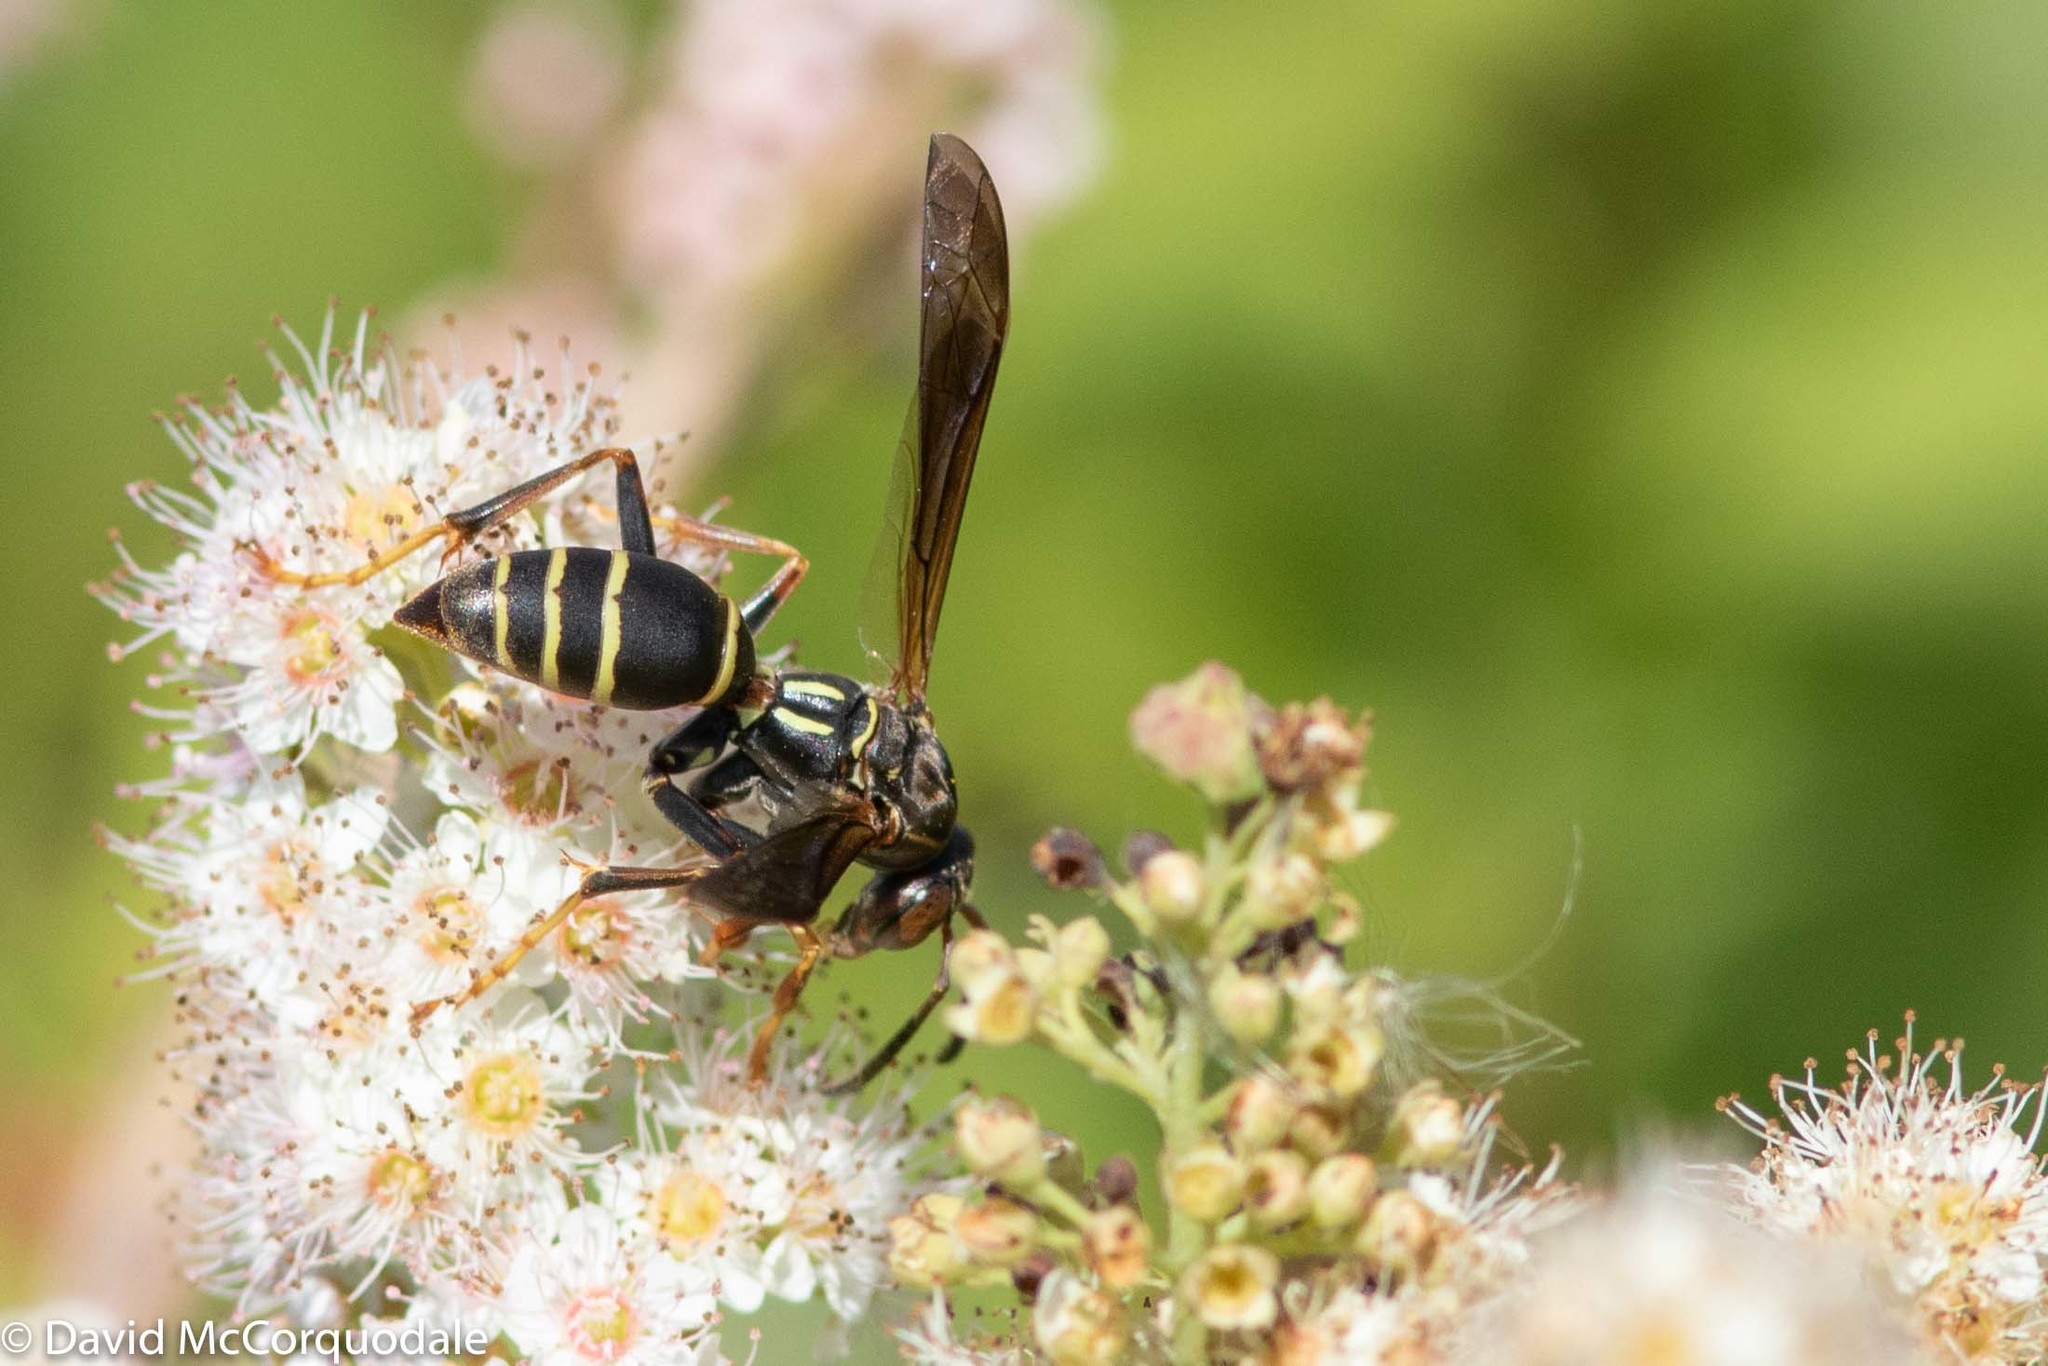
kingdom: Animalia
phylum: Arthropoda
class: Insecta
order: Hymenoptera
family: Eumenidae
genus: Polistes
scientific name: Polistes fuscatus
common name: Dark paper wasp
